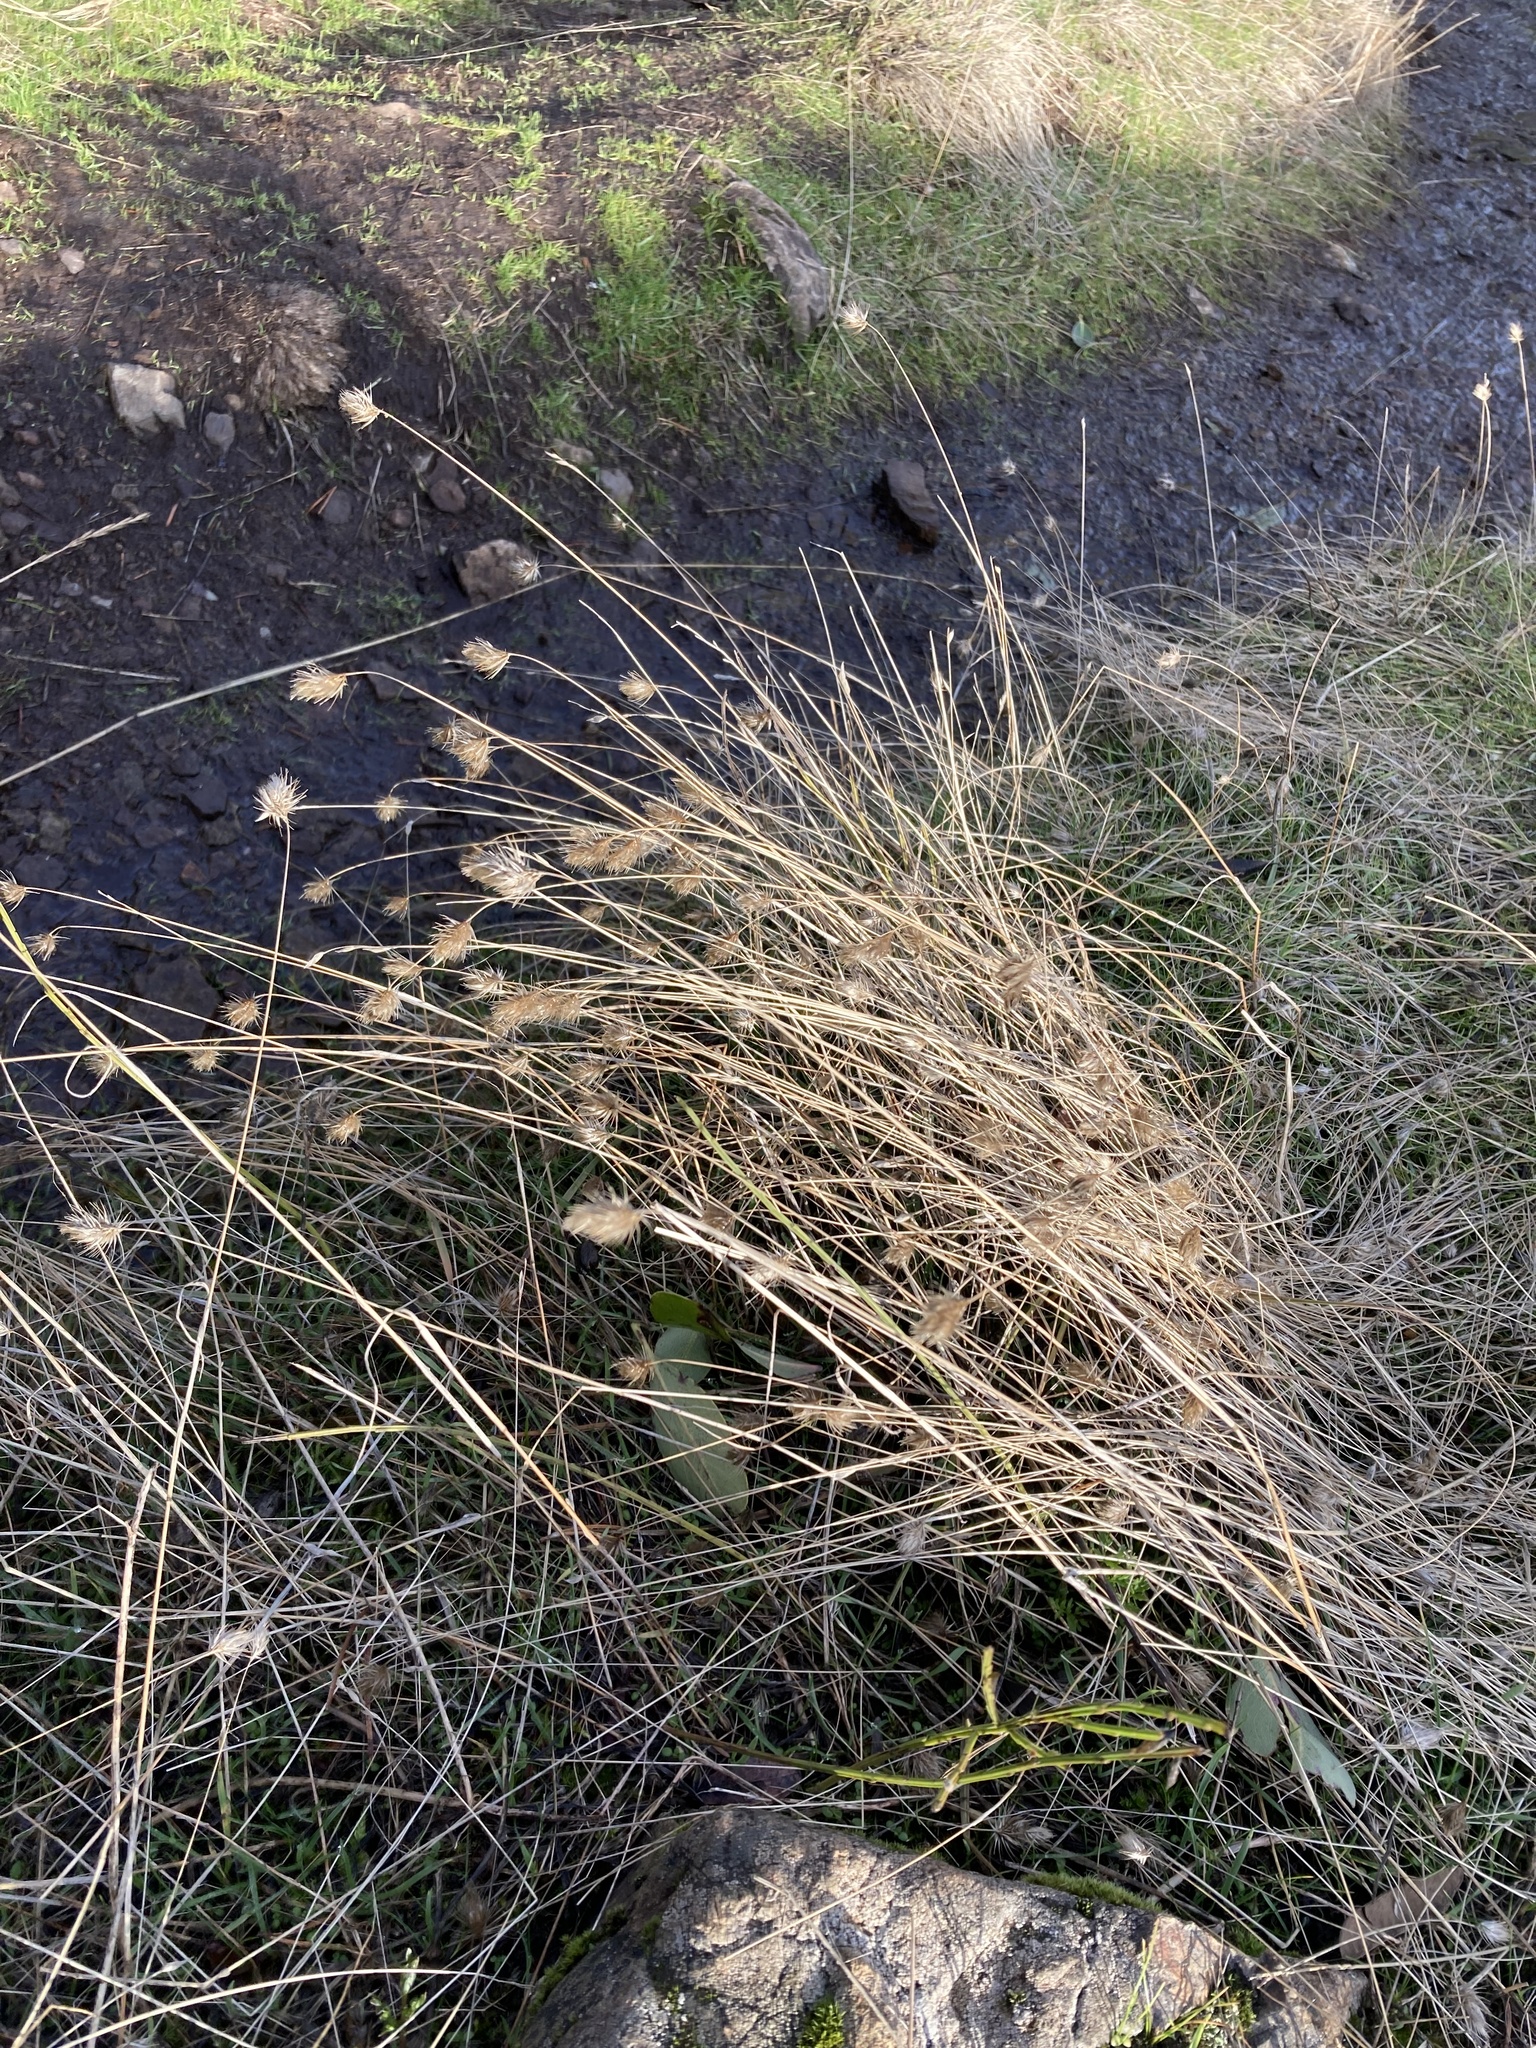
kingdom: Plantae
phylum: Tracheophyta
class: Liliopsida
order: Poales
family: Poaceae
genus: Cynosurus
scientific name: Cynosurus echinatus
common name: Rough dog's-tail
